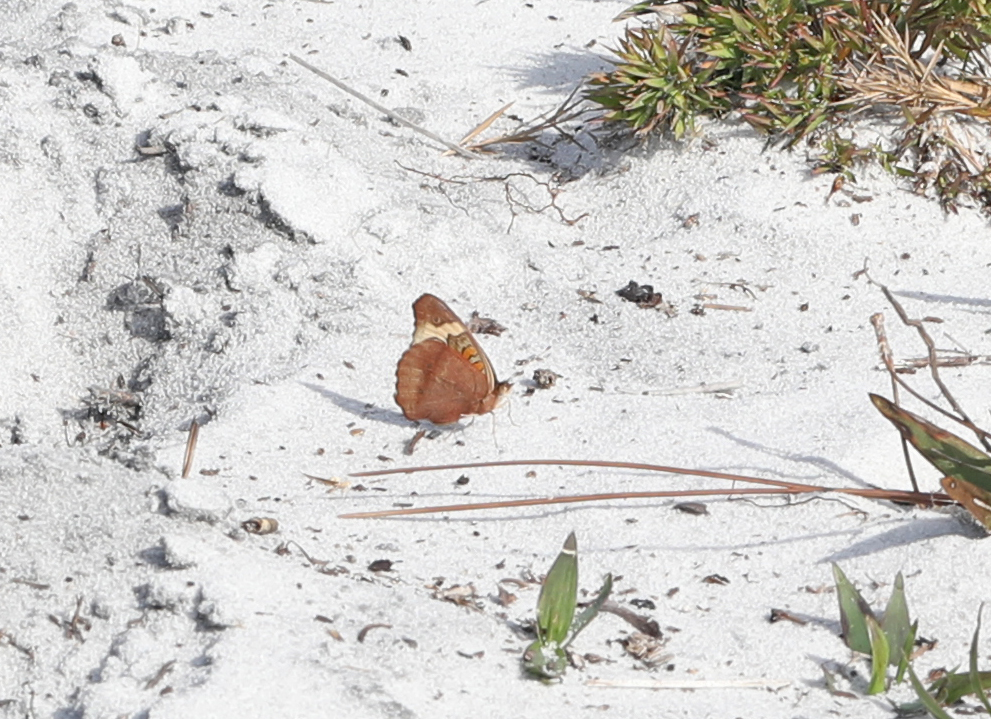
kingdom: Animalia
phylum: Arthropoda
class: Insecta
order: Lepidoptera
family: Nymphalidae
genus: Junonia
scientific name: Junonia coenia
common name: Common buckeye
